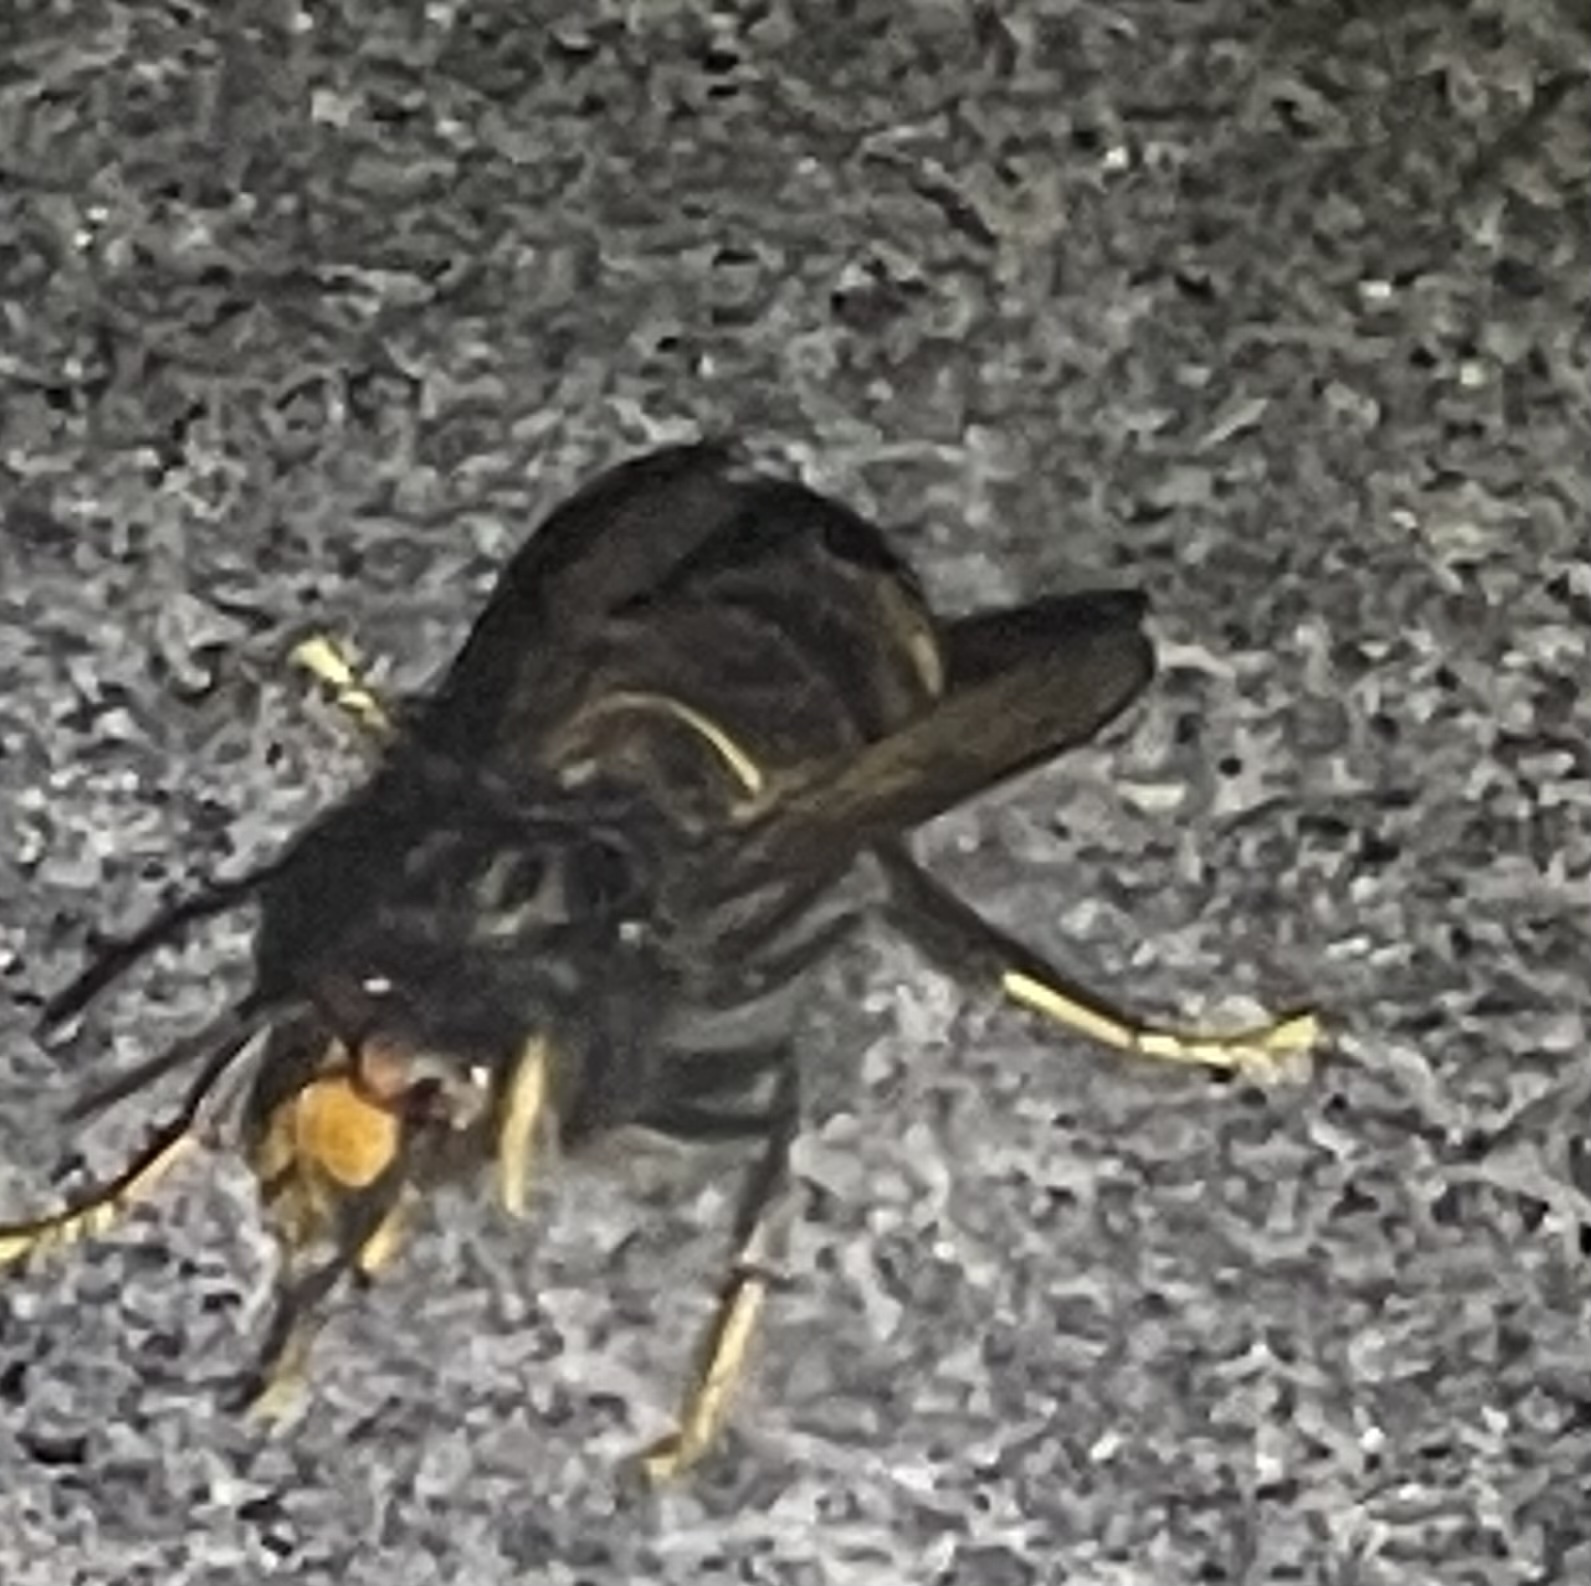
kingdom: Animalia
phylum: Arthropoda
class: Insecta
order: Hymenoptera
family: Vespidae
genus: Vespa
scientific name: Vespa velutina
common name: Asian hornet
